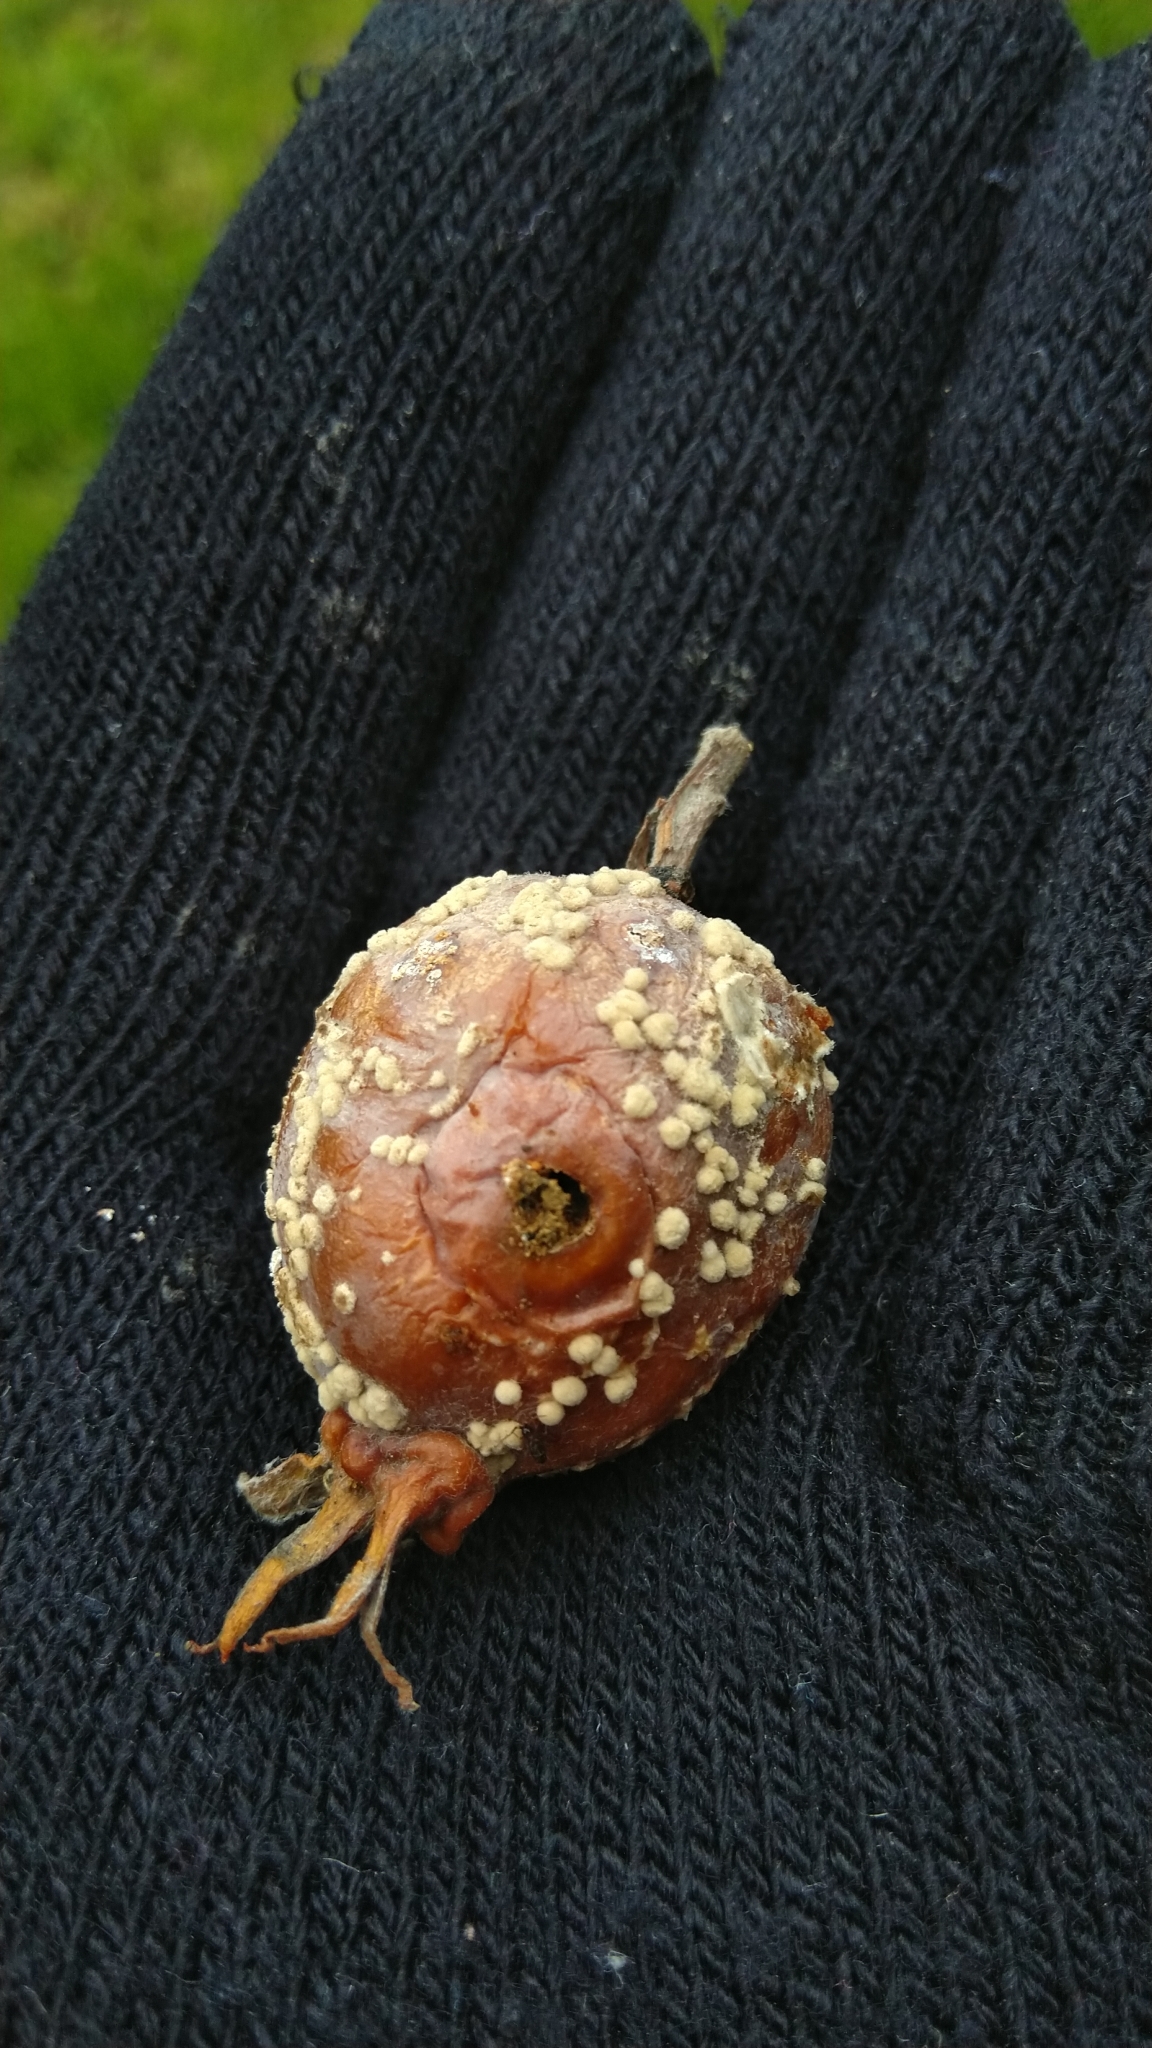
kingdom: Fungi
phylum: Ascomycota
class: Leotiomycetes
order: Helotiales
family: Sclerotiniaceae
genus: Monilinia
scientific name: Monilinia fructigena
